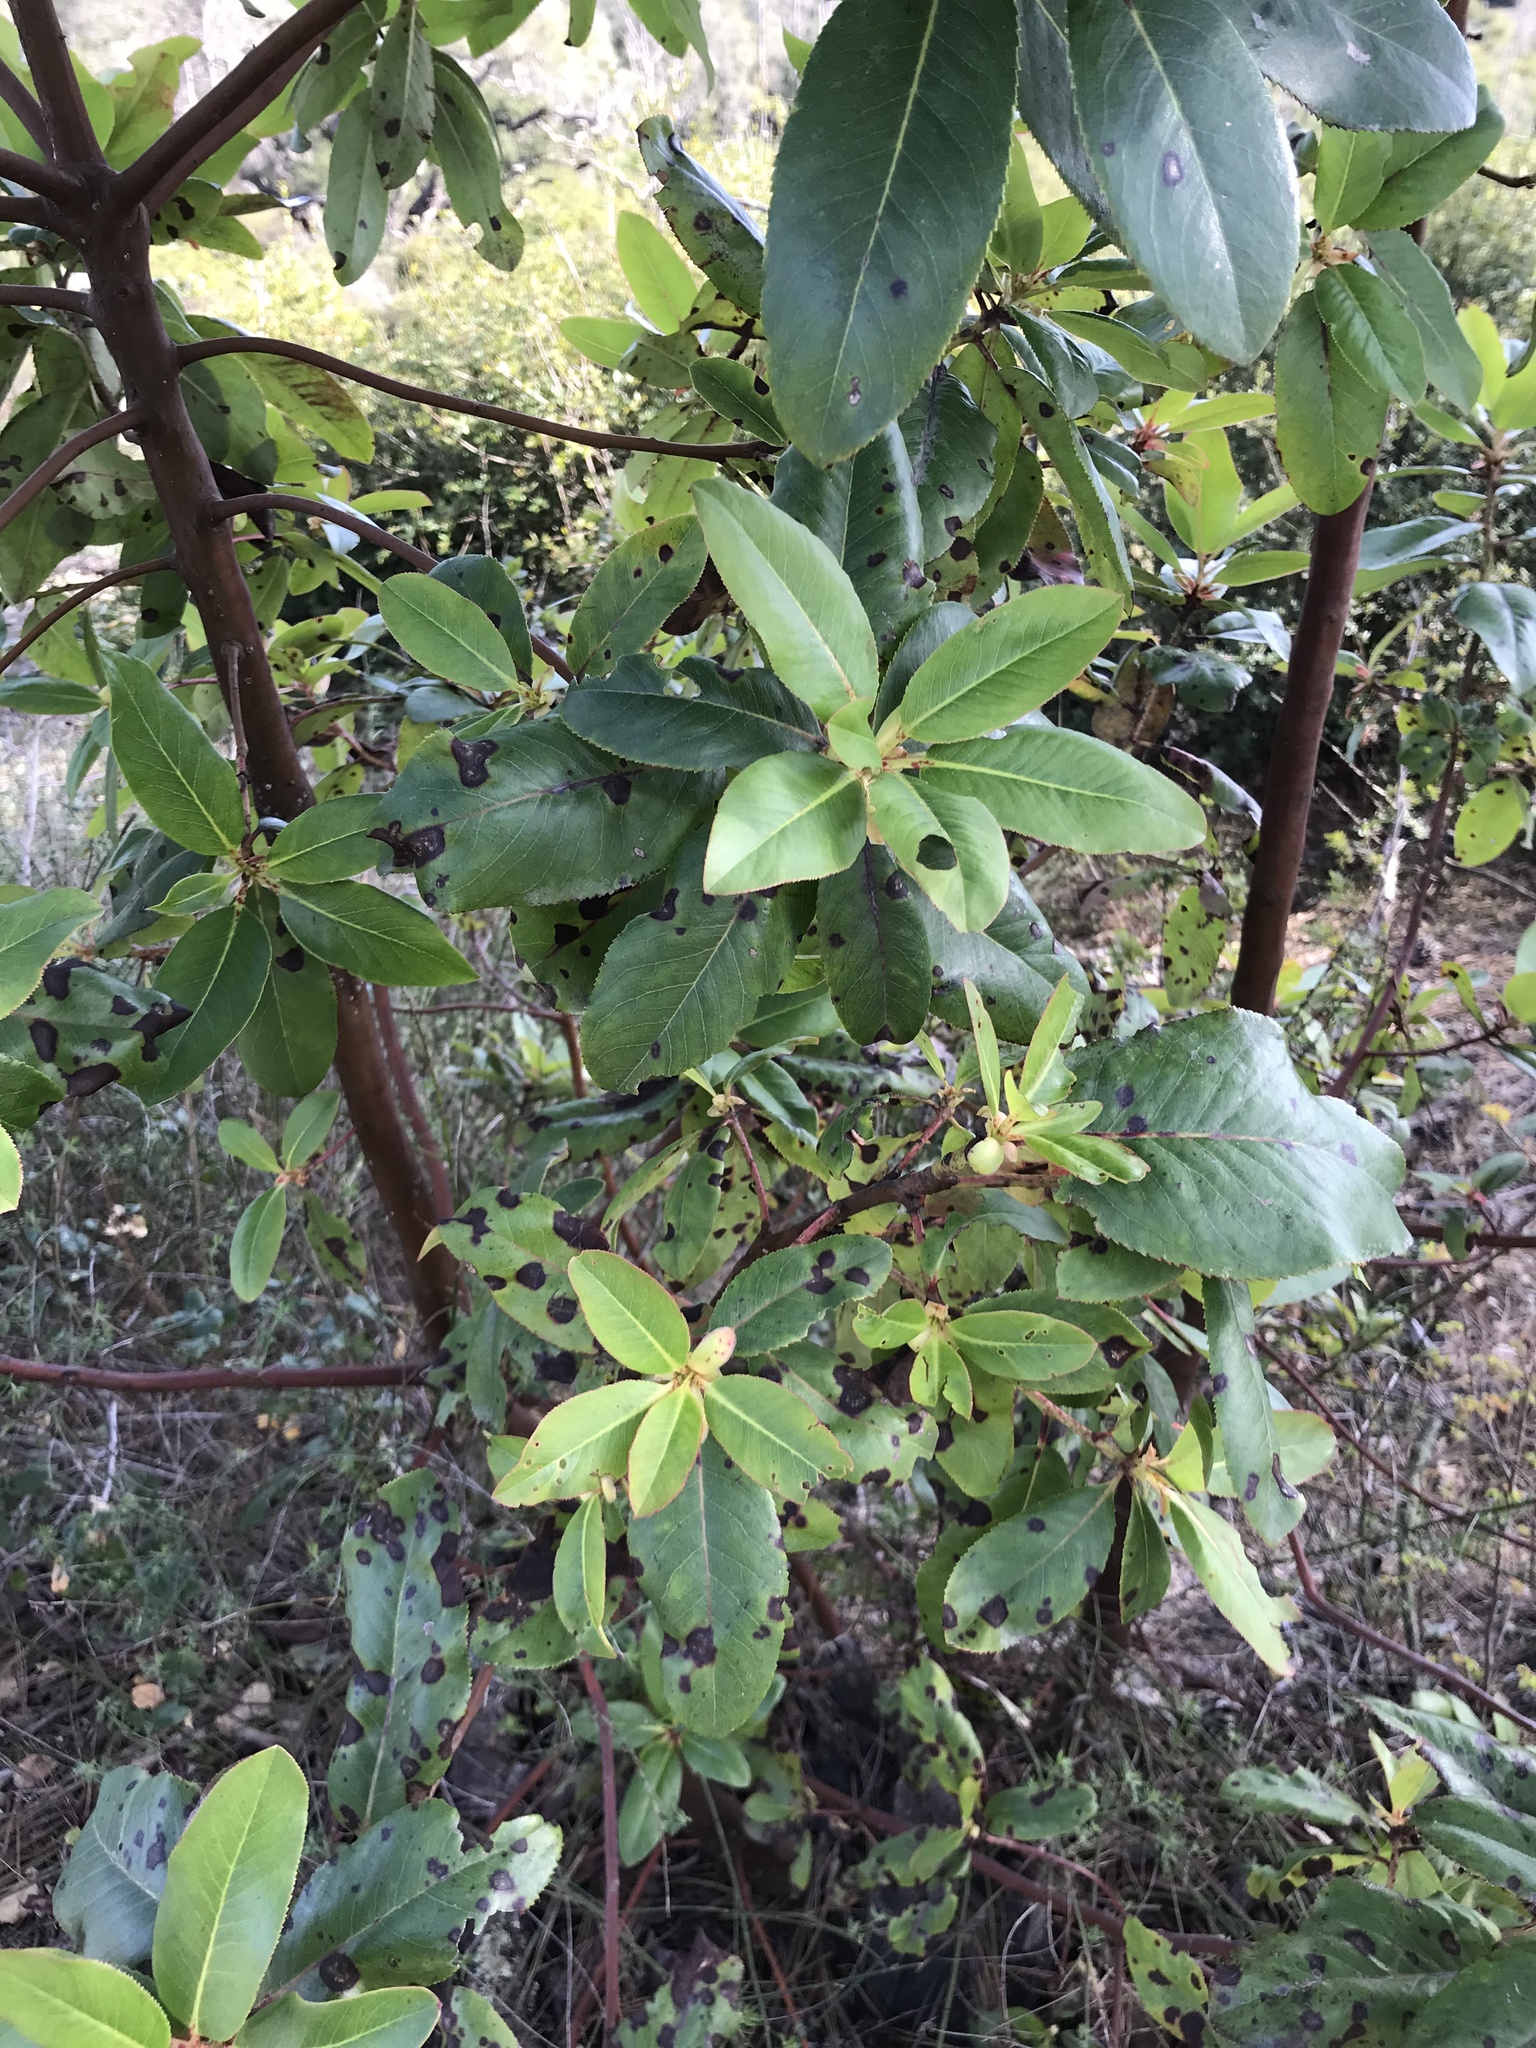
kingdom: Plantae
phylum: Tracheophyta
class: Magnoliopsida
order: Ericales
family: Ericaceae
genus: Arbutus
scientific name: Arbutus menziesii
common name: Pacific madrone
